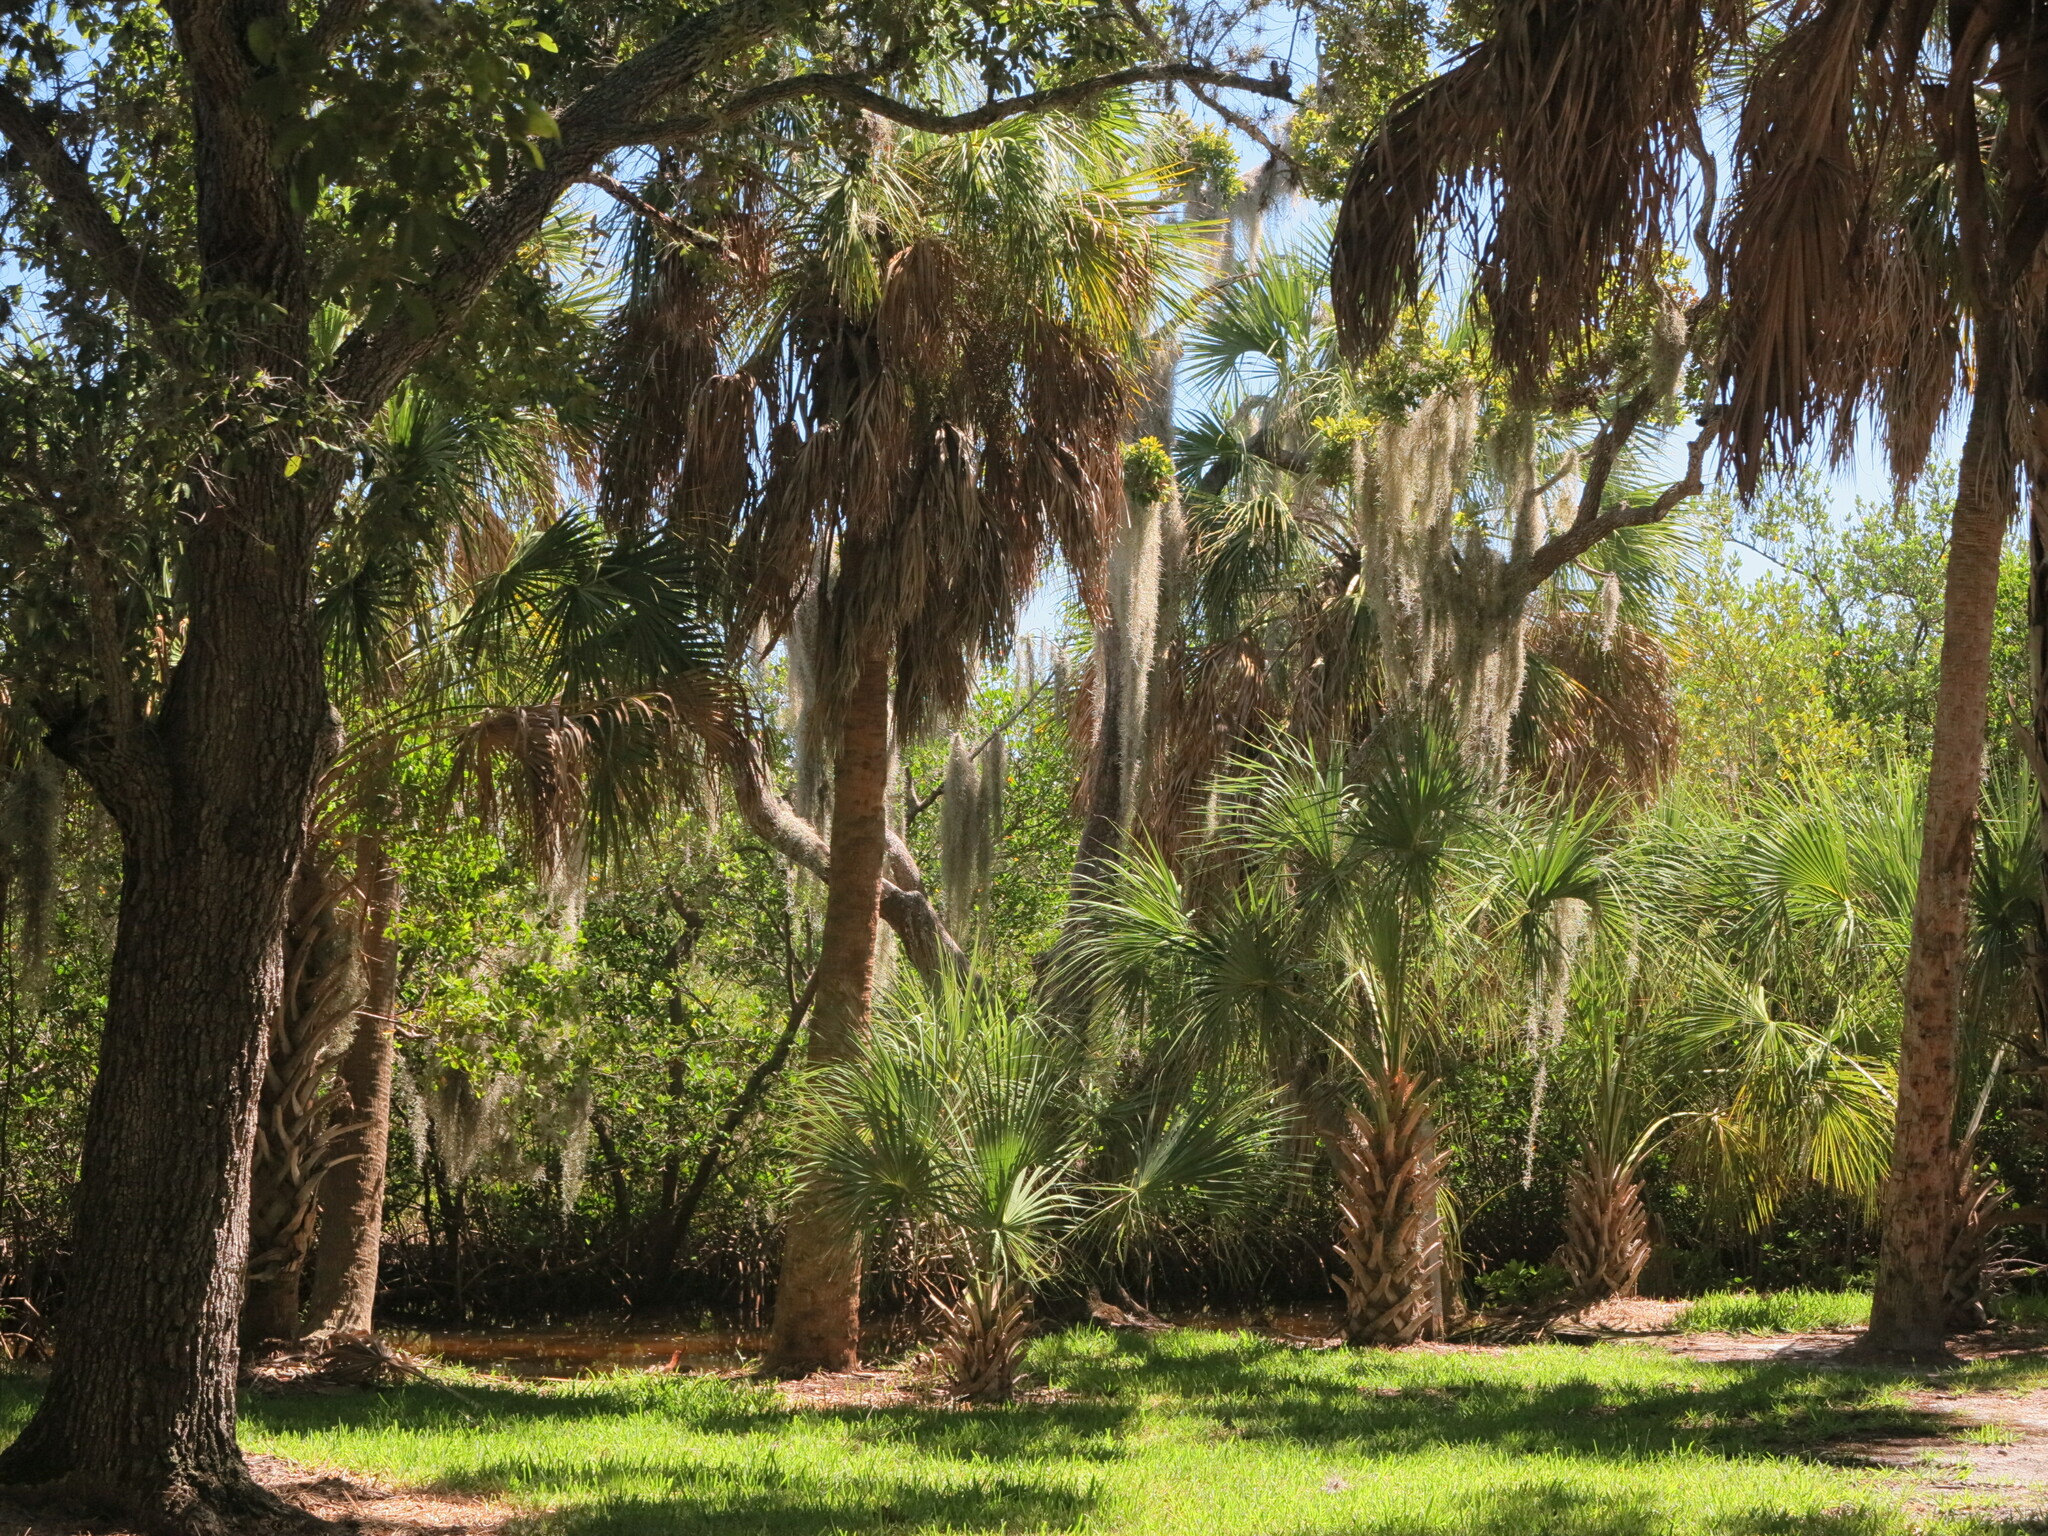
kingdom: Plantae
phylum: Tracheophyta
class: Liliopsida
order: Arecales
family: Arecaceae
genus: Sabal
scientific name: Sabal palmetto
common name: Blue palmetto
